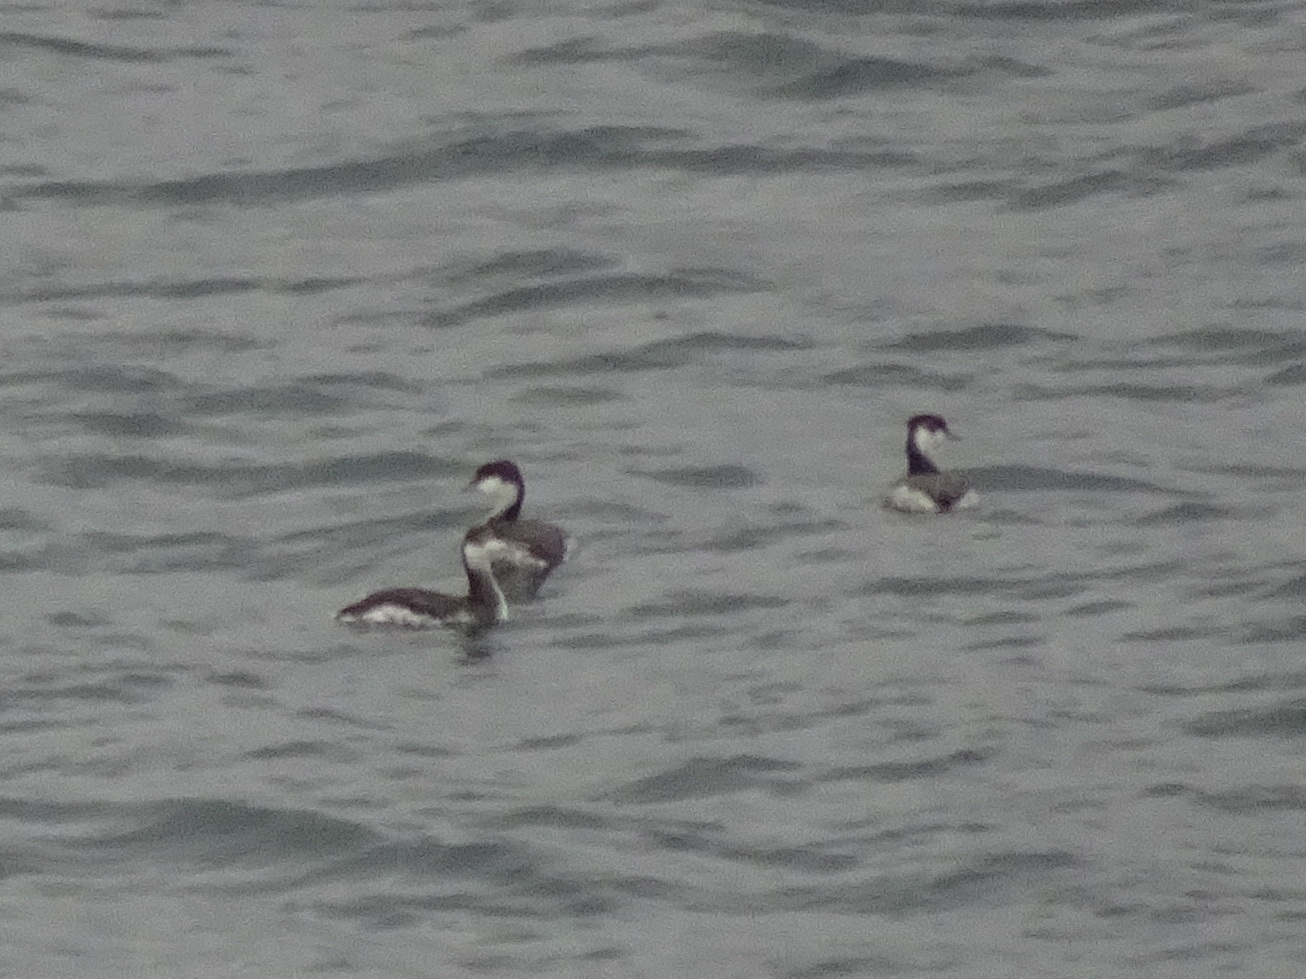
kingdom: Animalia
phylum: Chordata
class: Aves
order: Podicipediformes
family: Podicipedidae
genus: Podiceps
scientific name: Podiceps nigricollis
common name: Black-necked grebe
